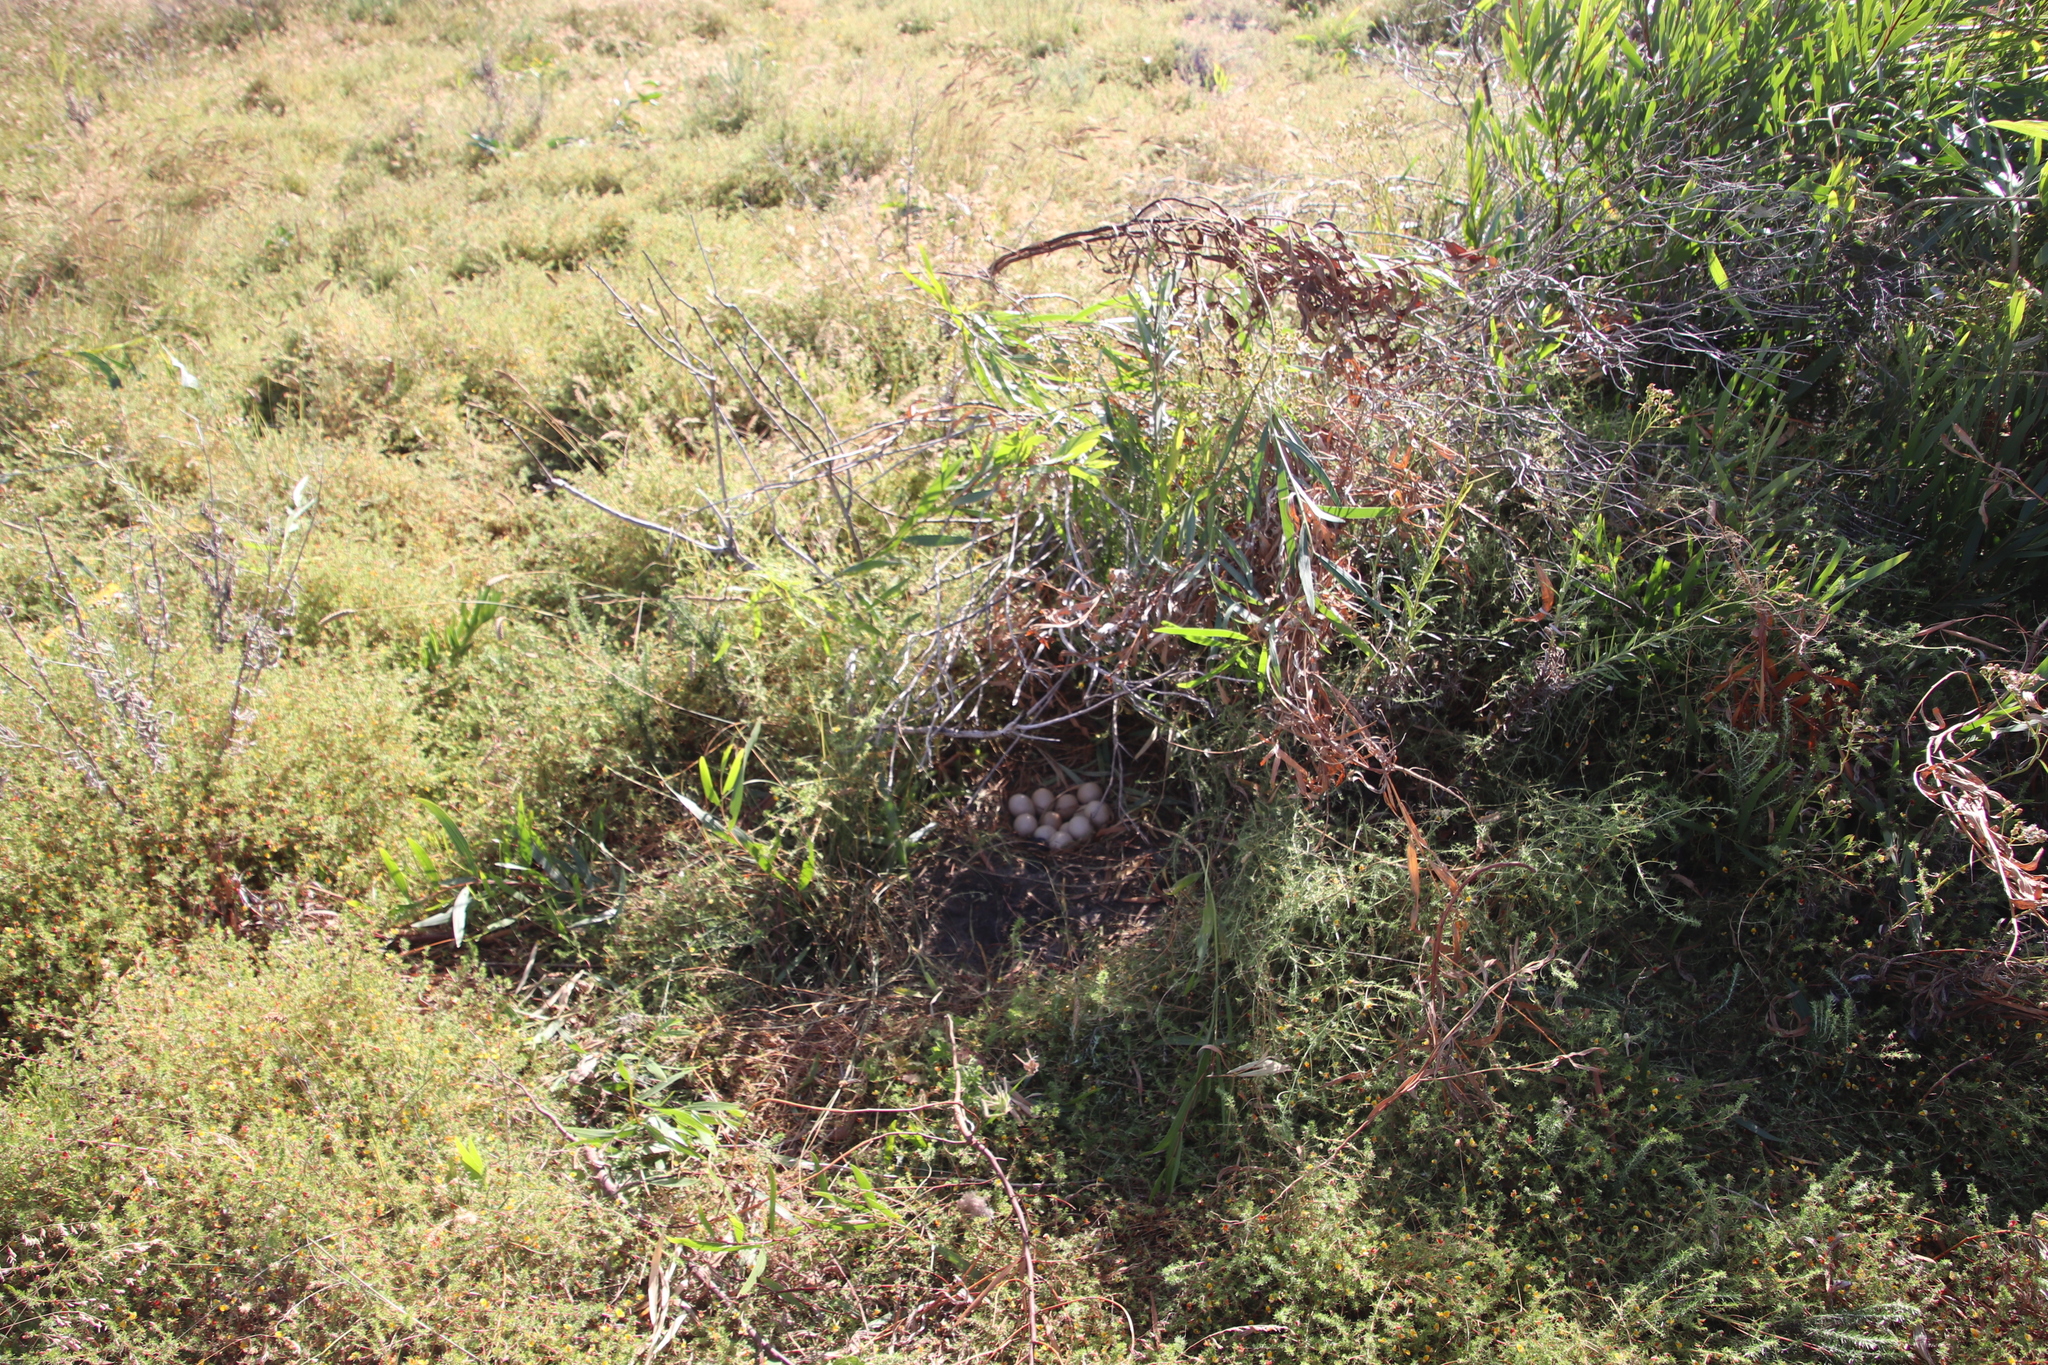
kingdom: Animalia
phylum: Chordata
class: Aves
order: Galliformes
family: Numididae
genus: Numida
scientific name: Numida meleagris
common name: Helmeted guineafowl
